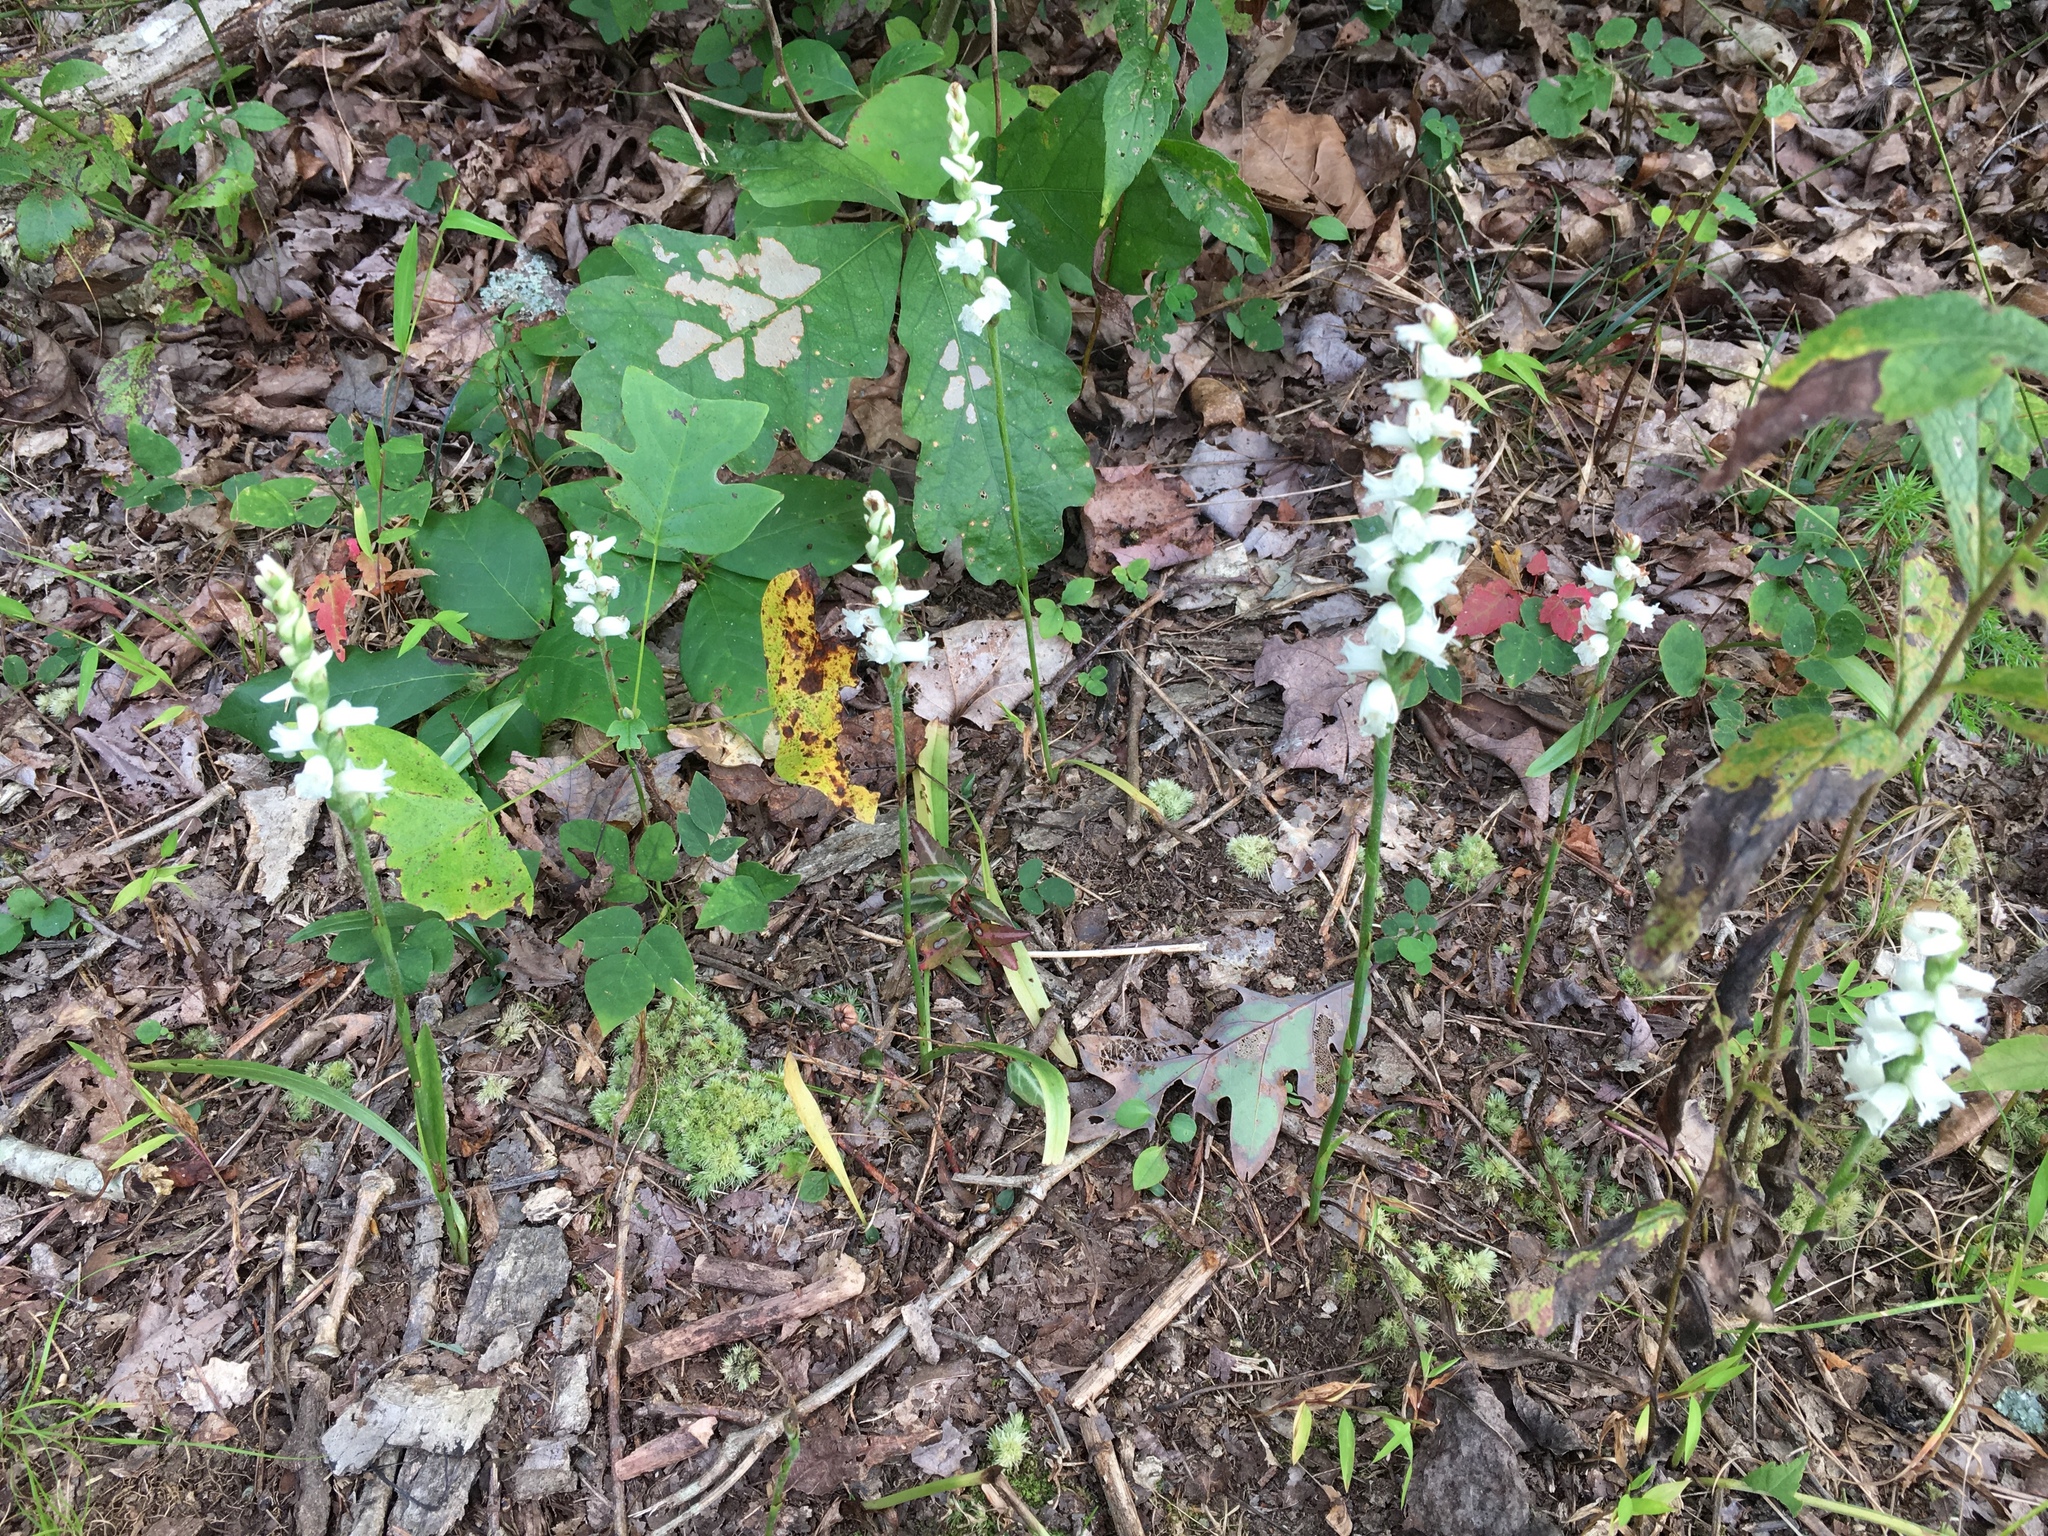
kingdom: Plantae
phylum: Tracheophyta
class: Liliopsida
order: Asparagales
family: Orchidaceae
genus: Spiranthes
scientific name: Spiranthes arcisepala
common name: Appalachian ladies'-tresses
